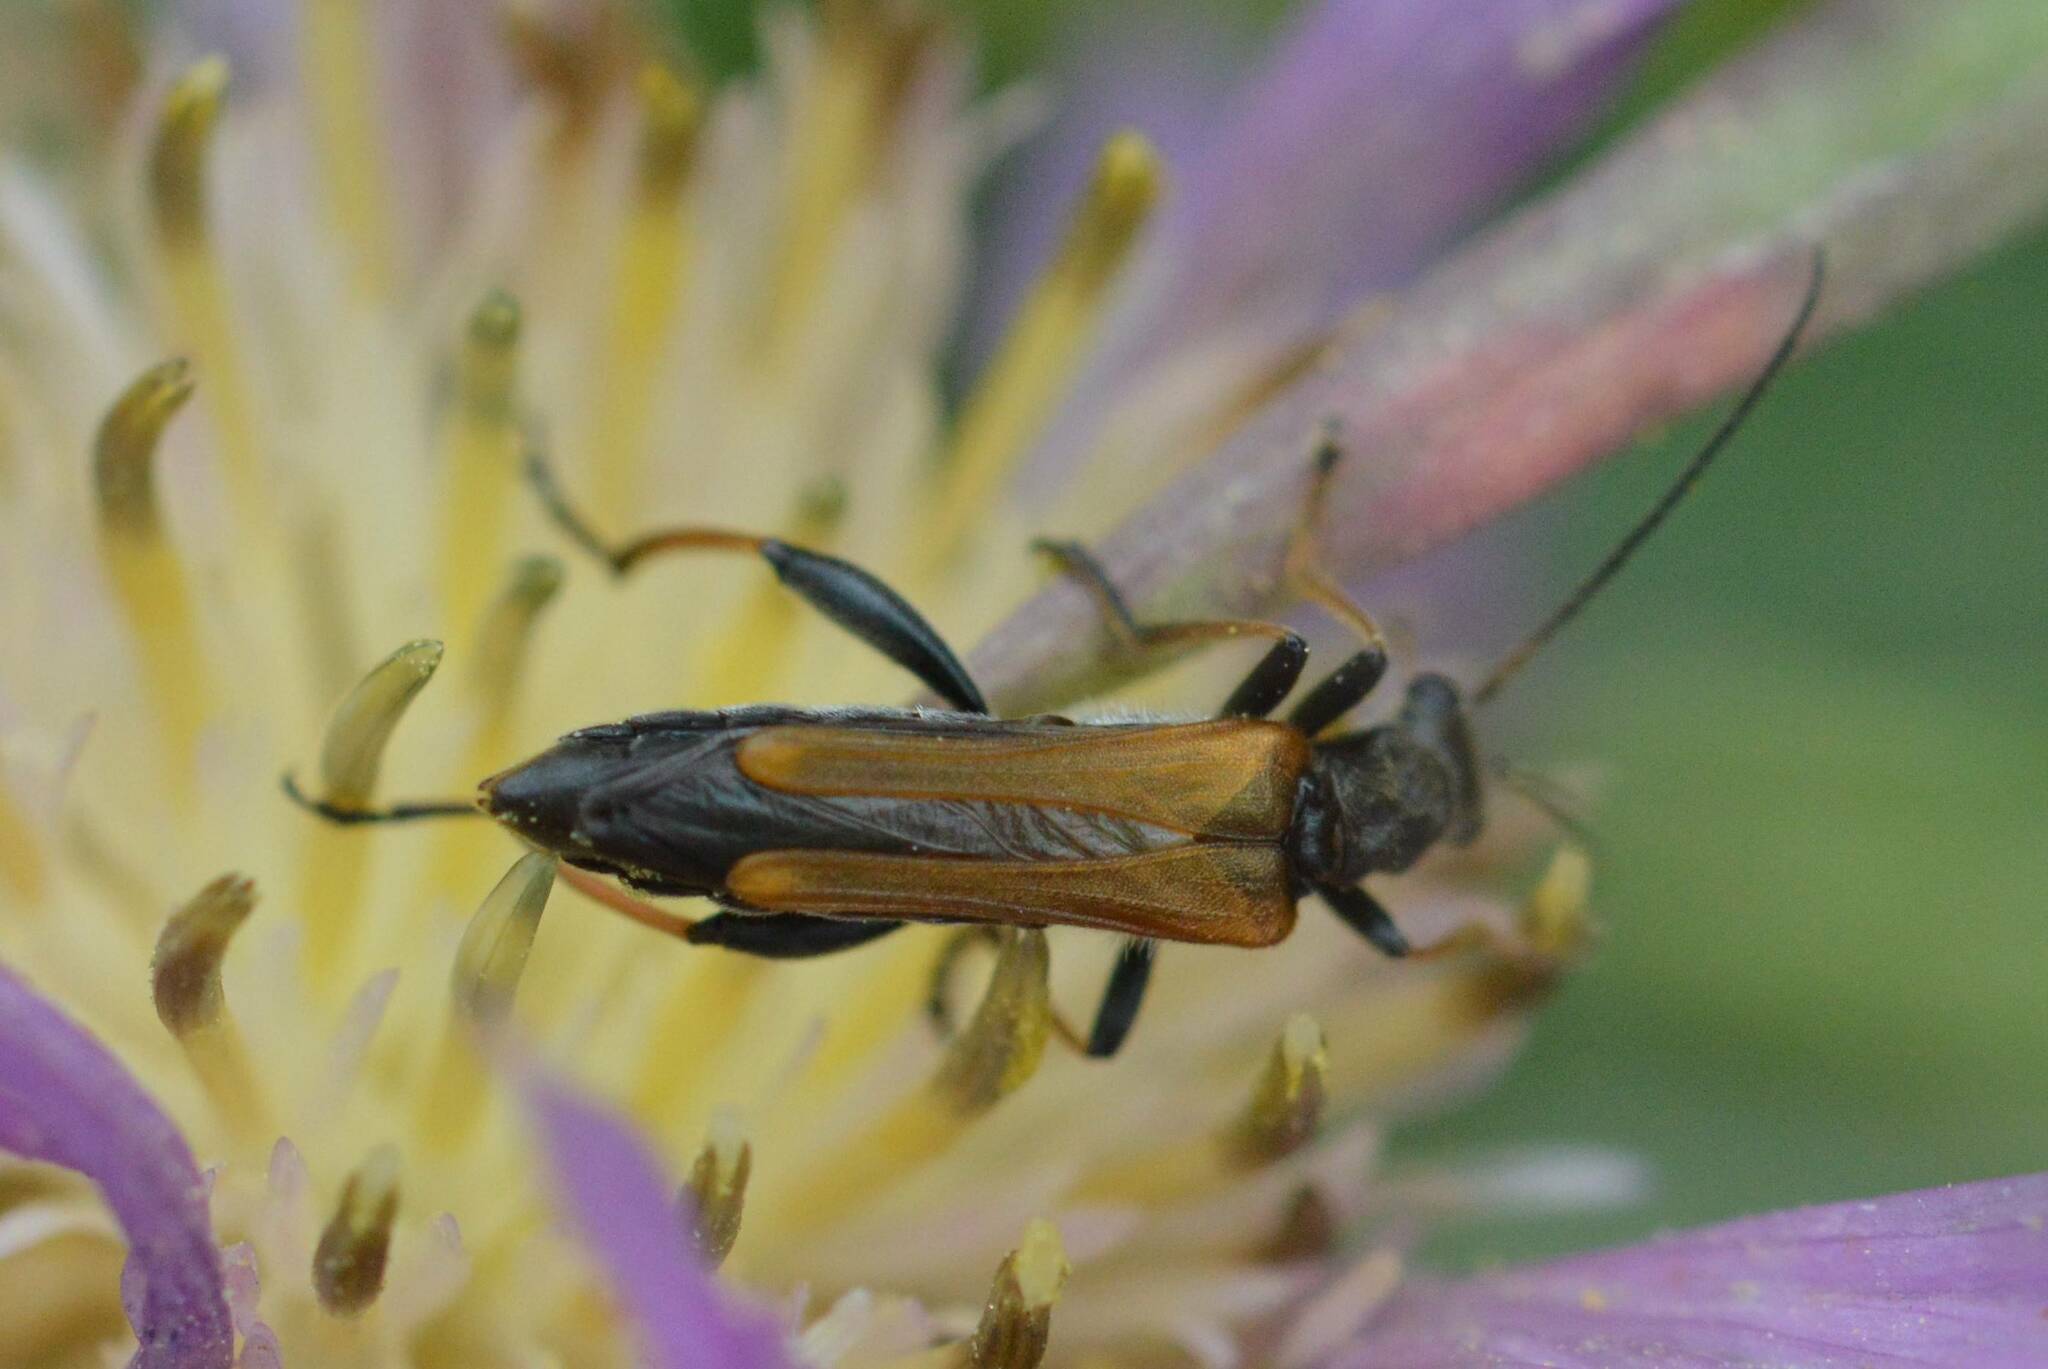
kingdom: Animalia
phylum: Arthropoda
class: Insecta
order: Coleoptera
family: Oedemeridae
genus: Oedemera
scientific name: Oedemera simplex
